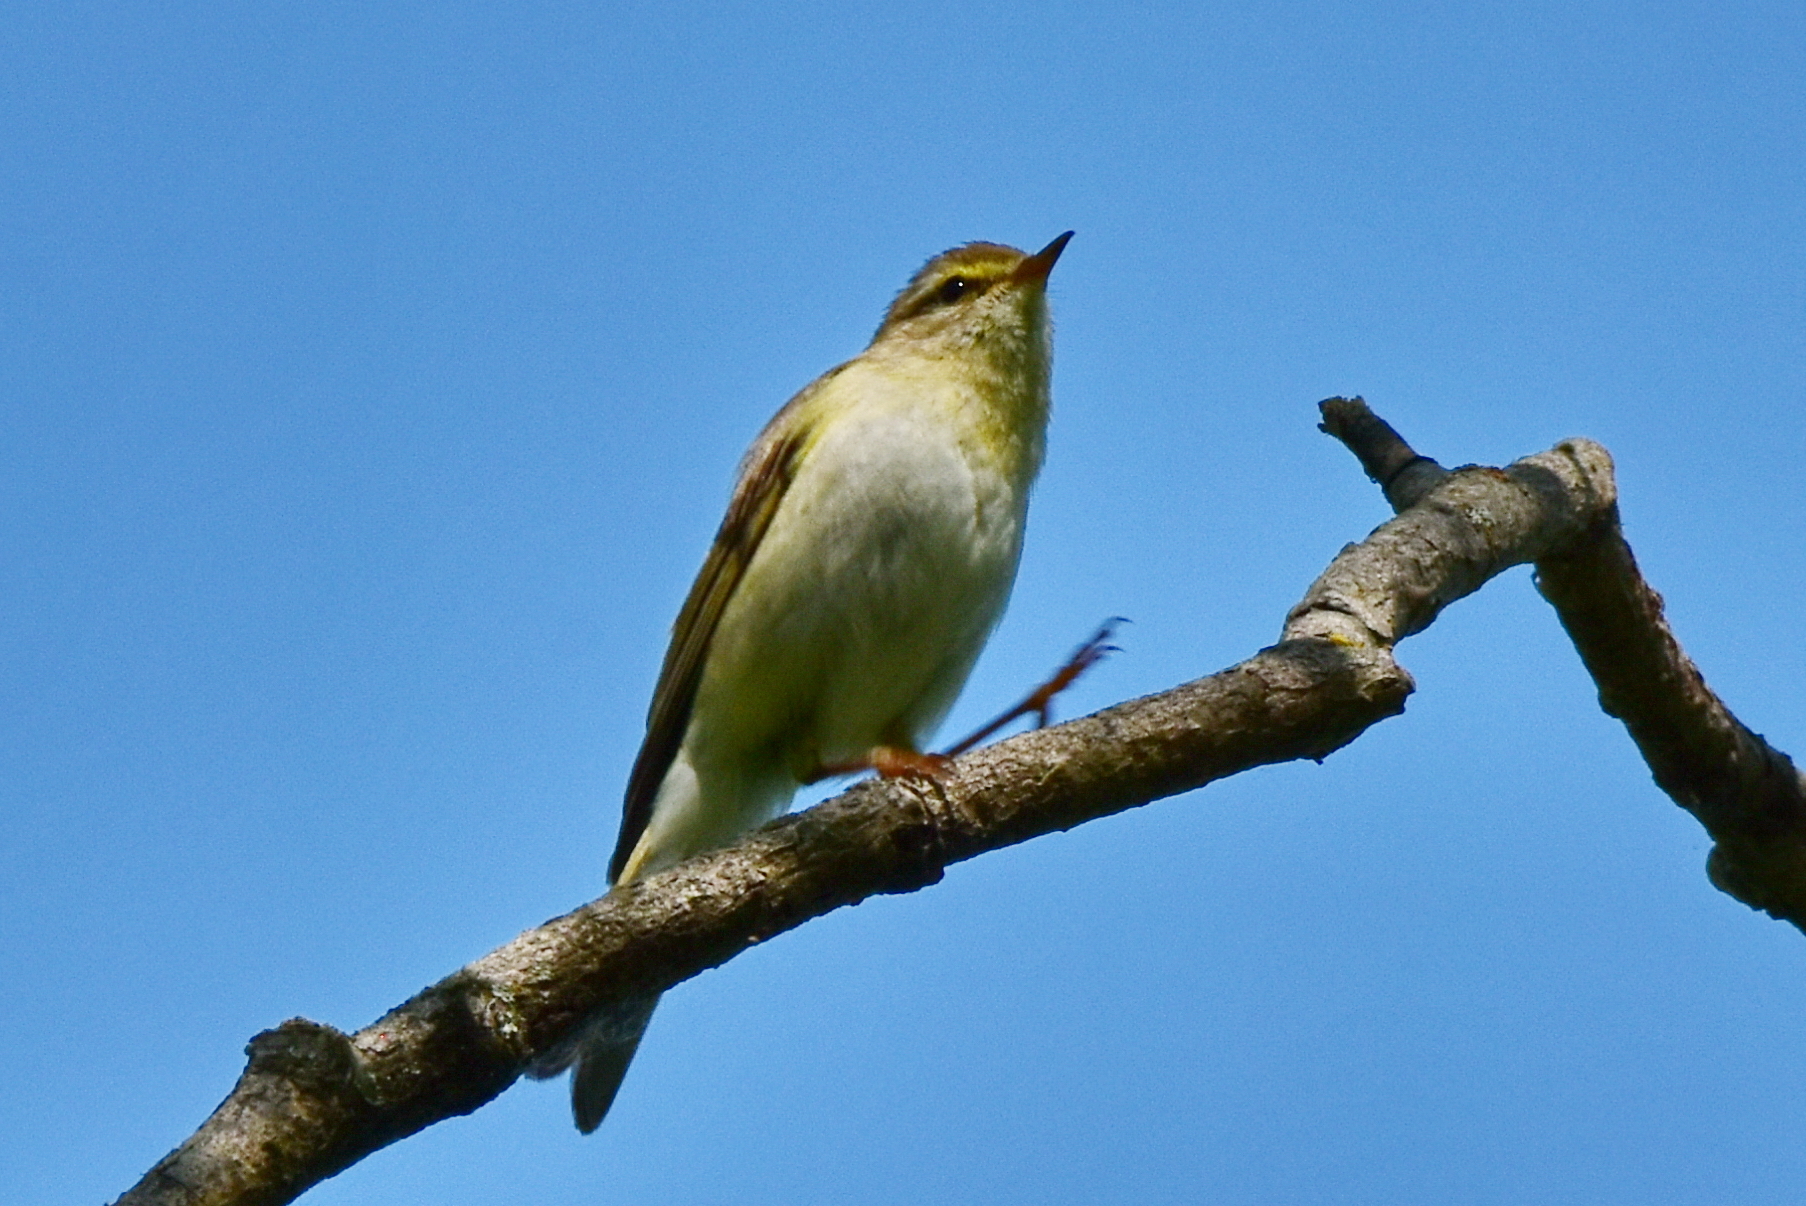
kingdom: Animalia
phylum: Chordata
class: Aves
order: Passeriformes
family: Phylloscopidae
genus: Phylloscopus
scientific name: Phylloscopus trochilus
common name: Willow warbler
